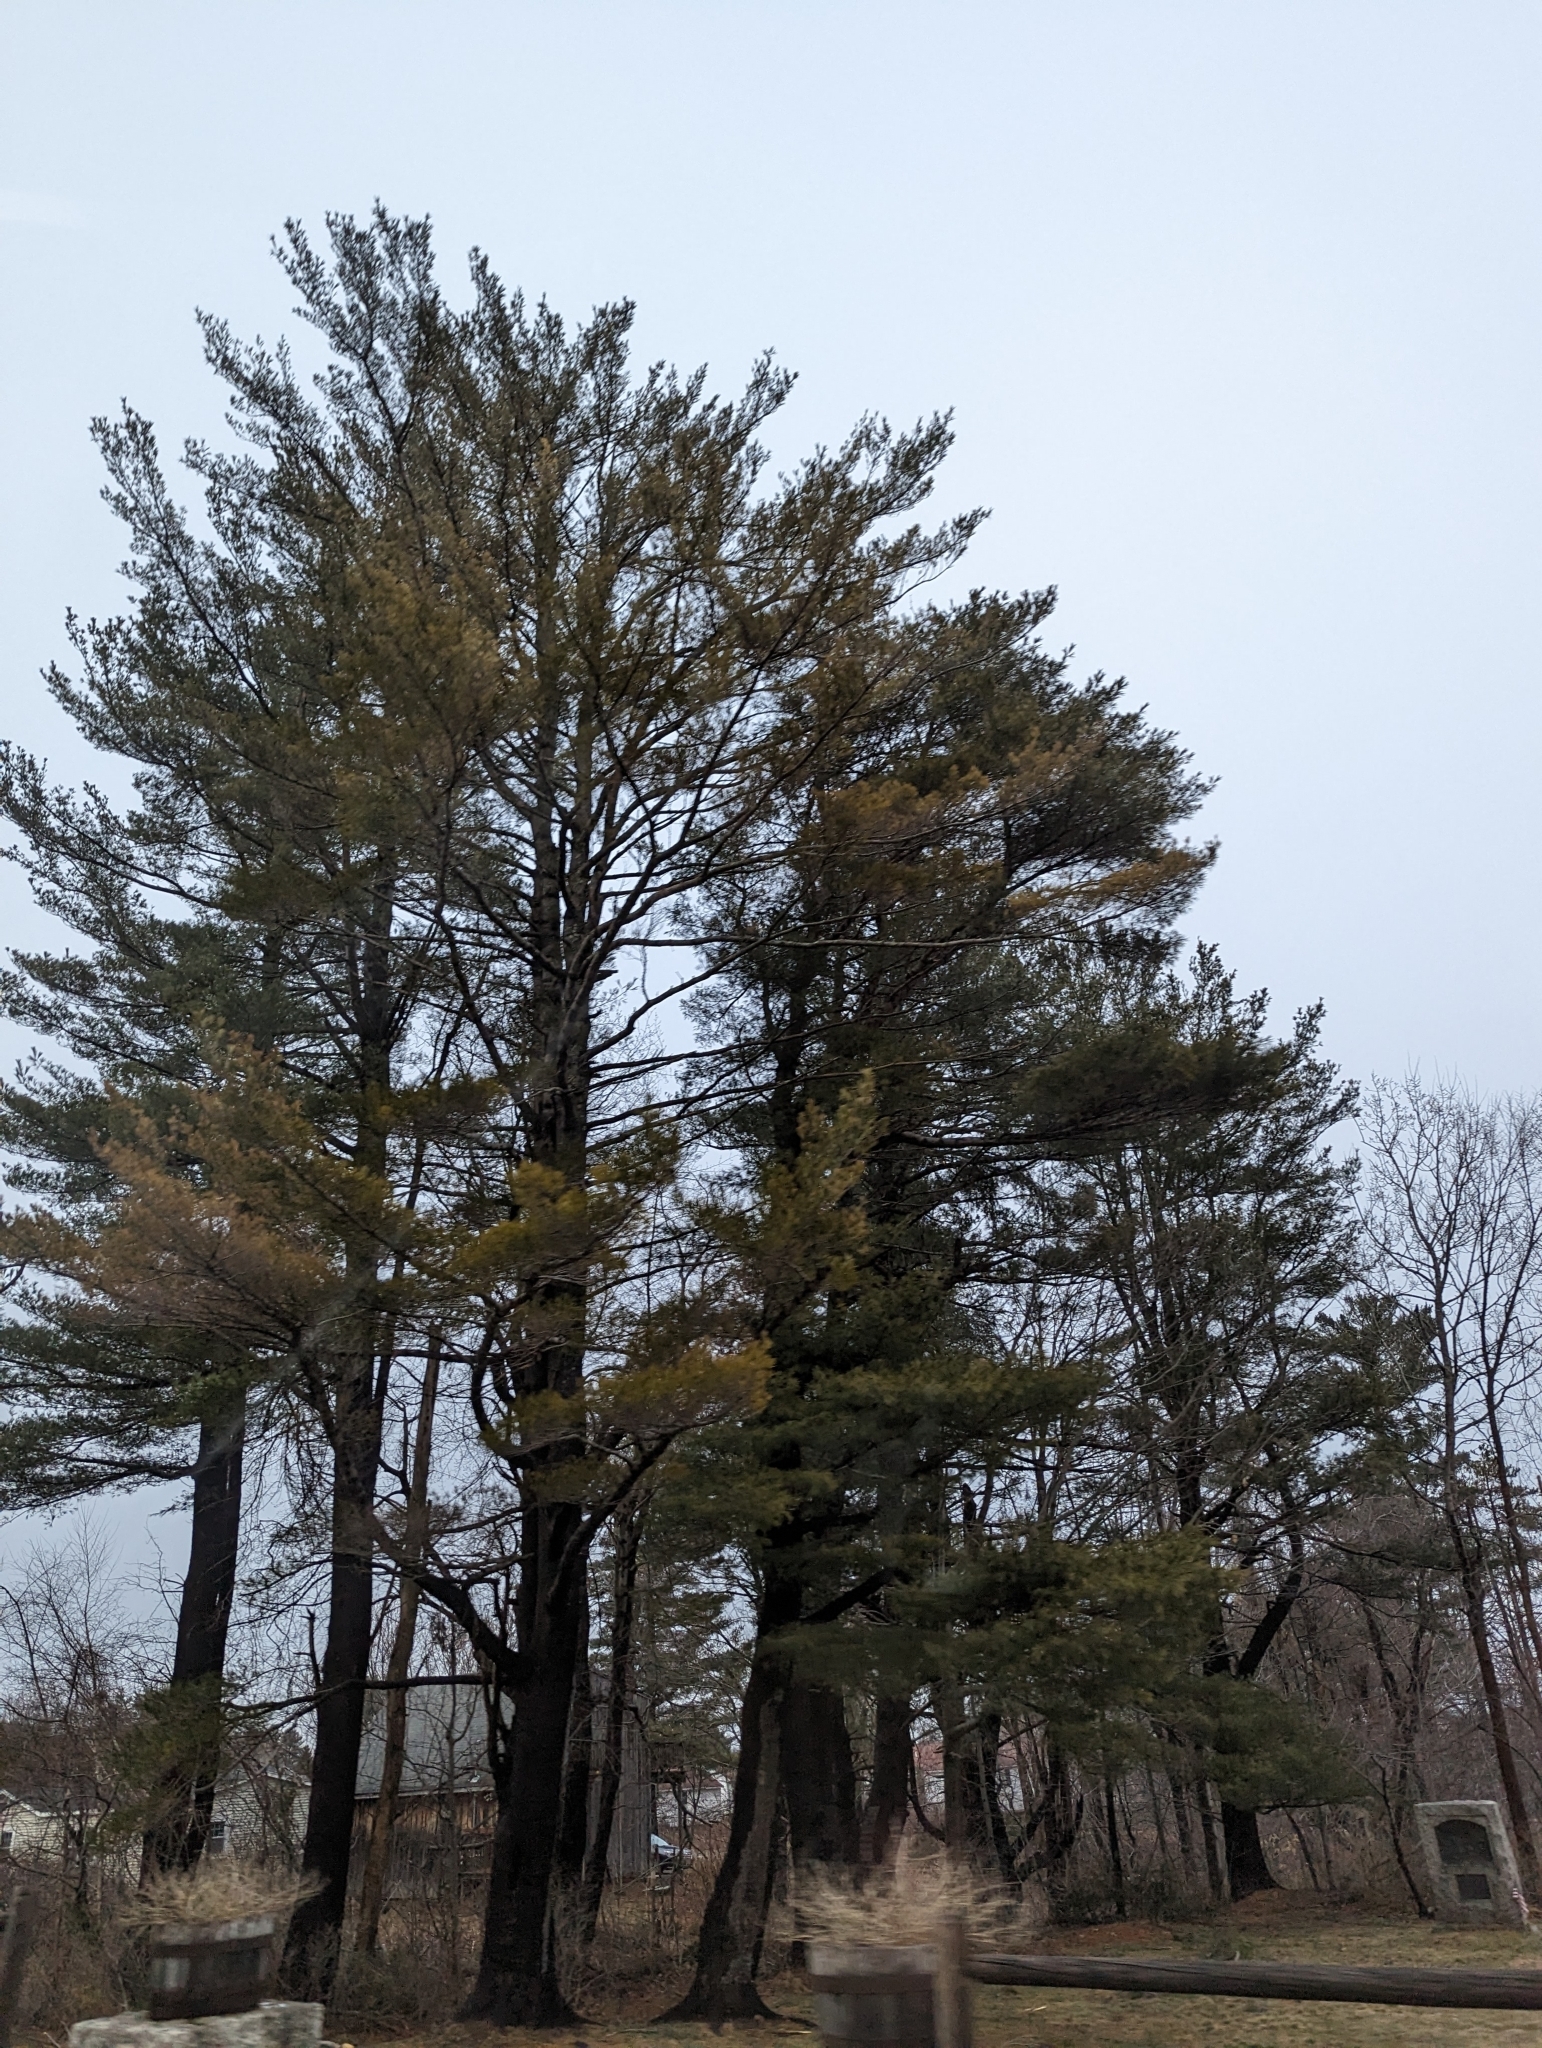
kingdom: Plantae
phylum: Tracheophyta
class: Pinopsida
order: Pinales
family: Pinaceae
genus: Pinus
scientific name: Pinus strobus
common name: Weymouth pine
